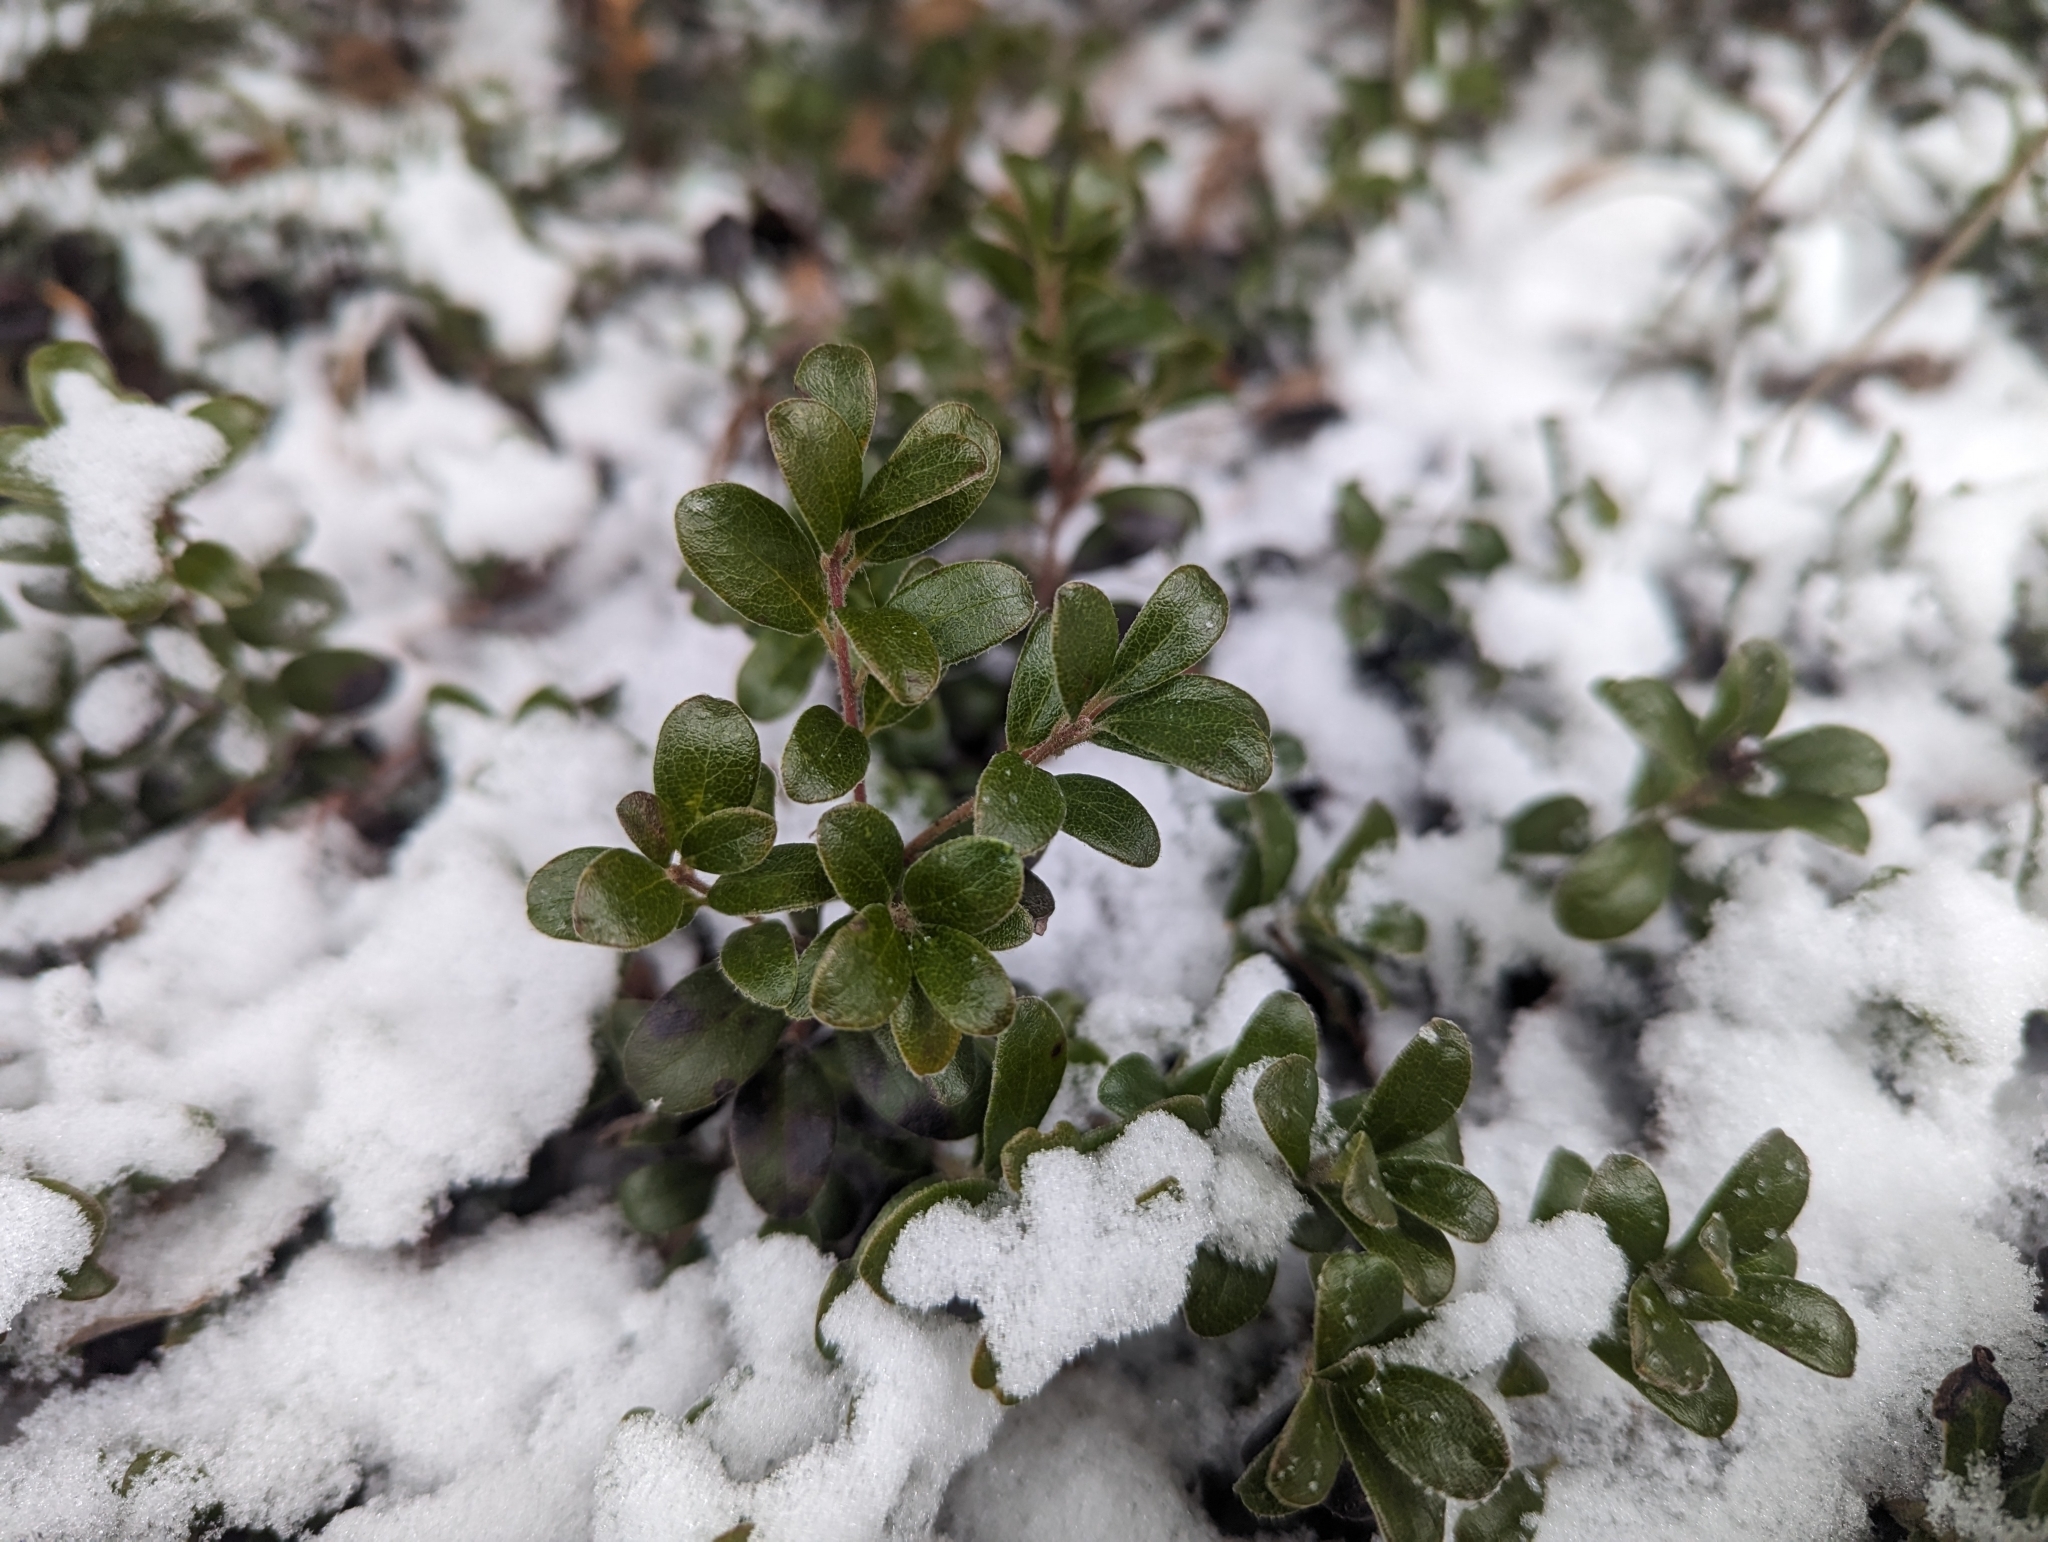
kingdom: Plantae
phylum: Tracheophyta
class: Magnoliopsida
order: Ericales
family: Ericaceae
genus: Arctostaphylos
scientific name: Arctostaphylos uva-ursi
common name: Bearberry
